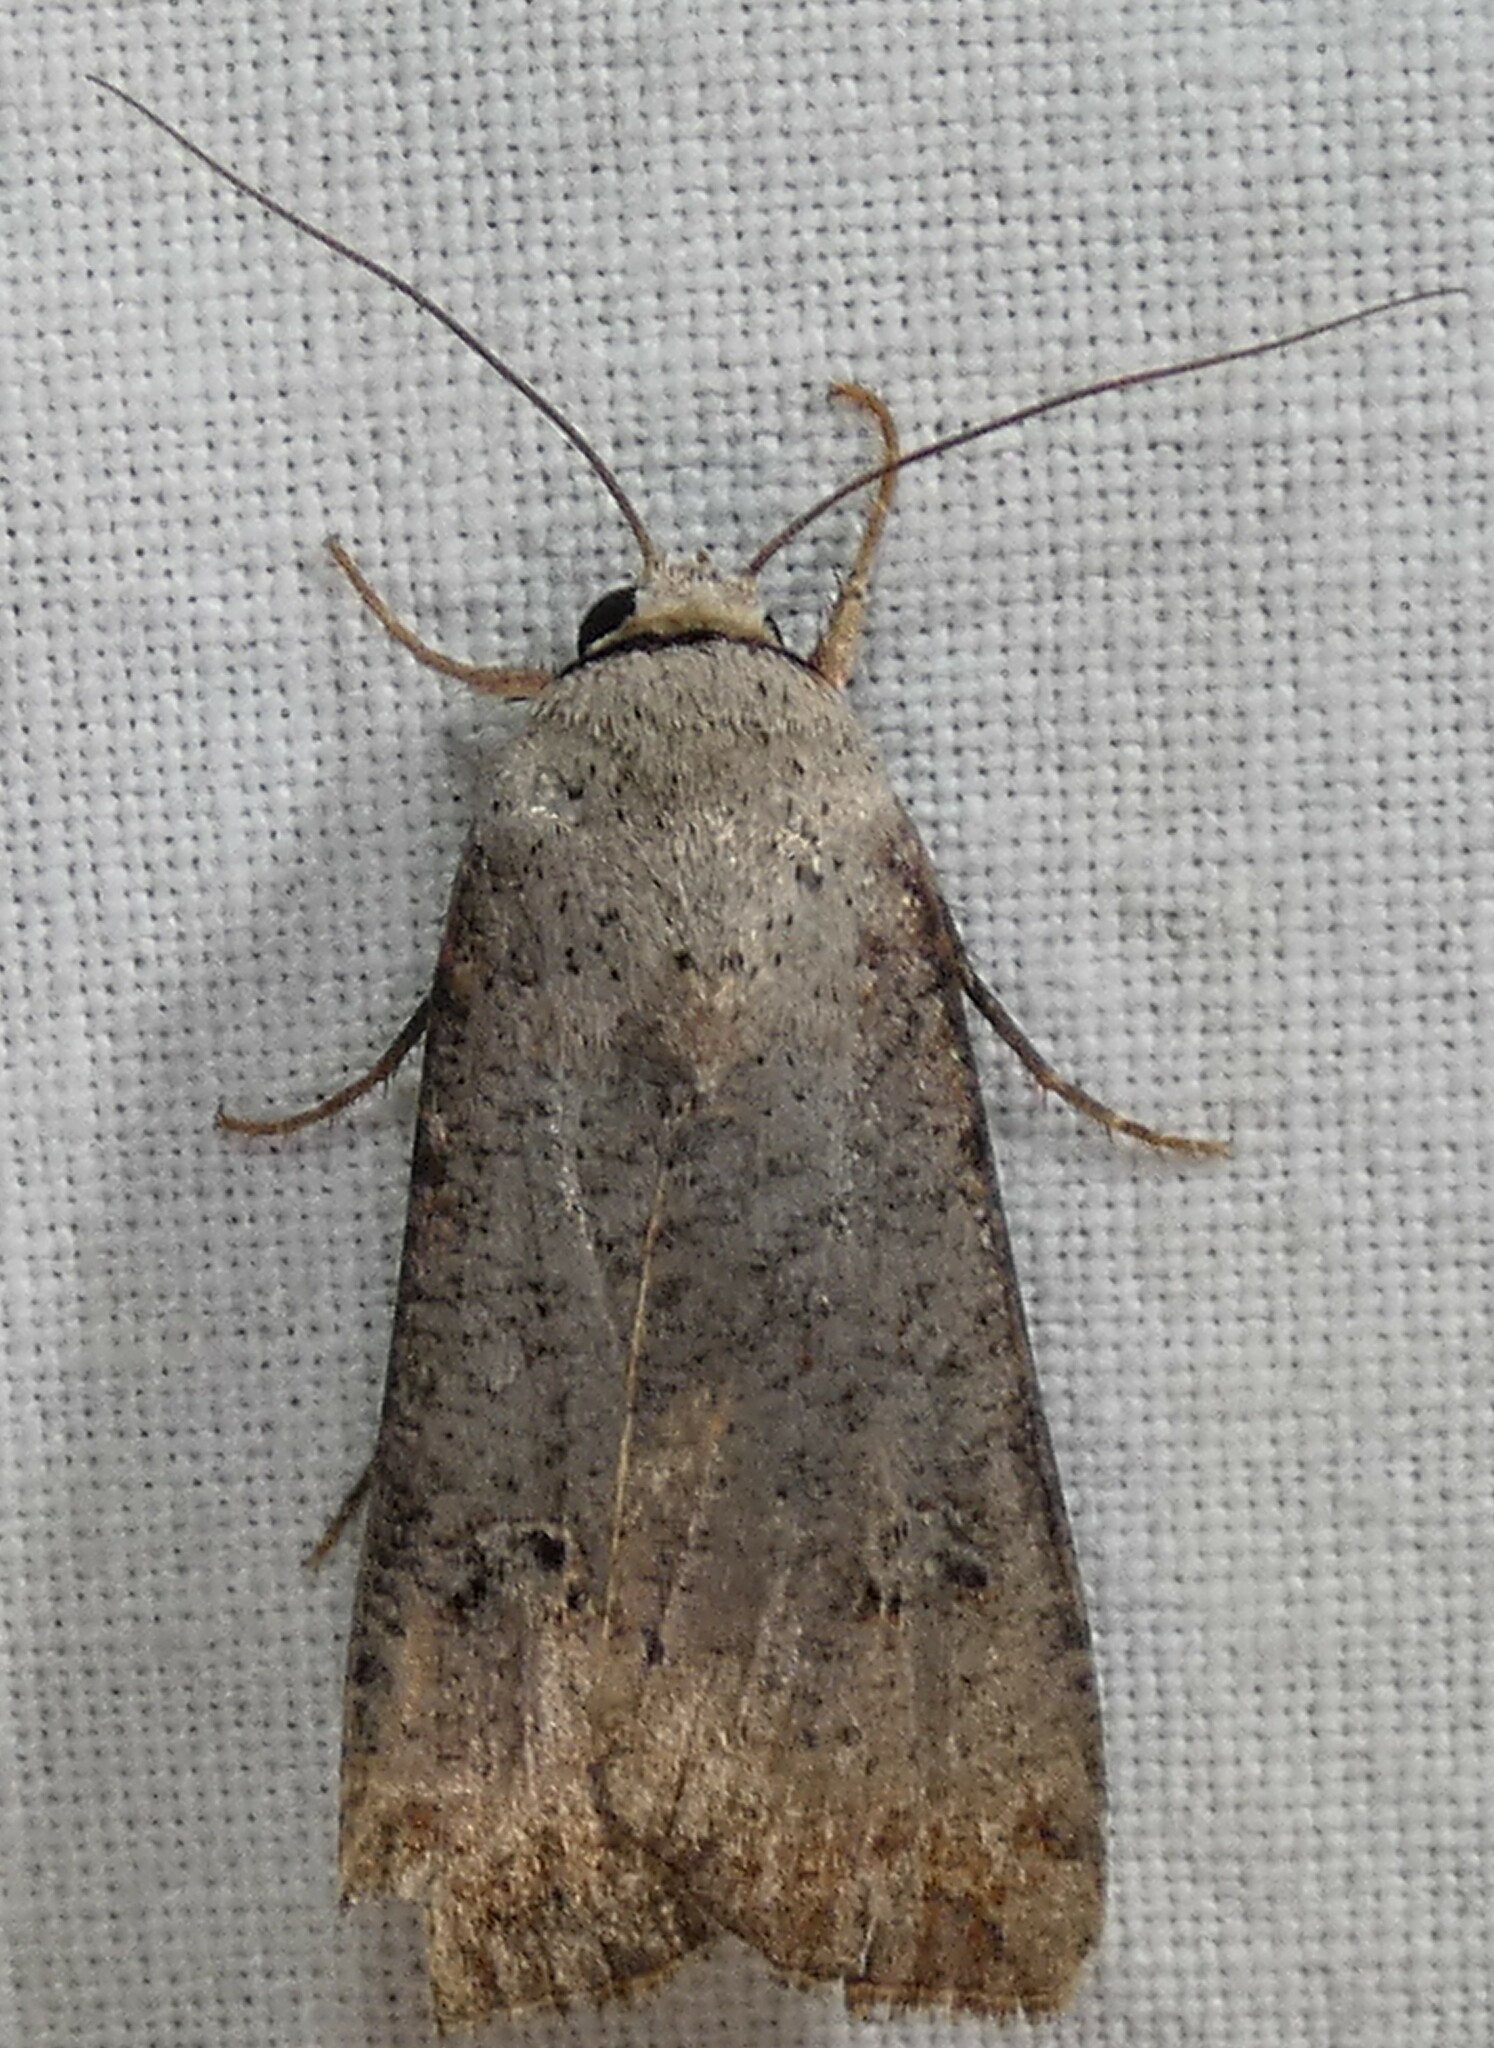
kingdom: Animalia
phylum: Arthropoda
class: Insecta
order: Lepidoptera
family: Noctuidae
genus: Anicla
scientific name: Anicla infecta
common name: Green cutworm
